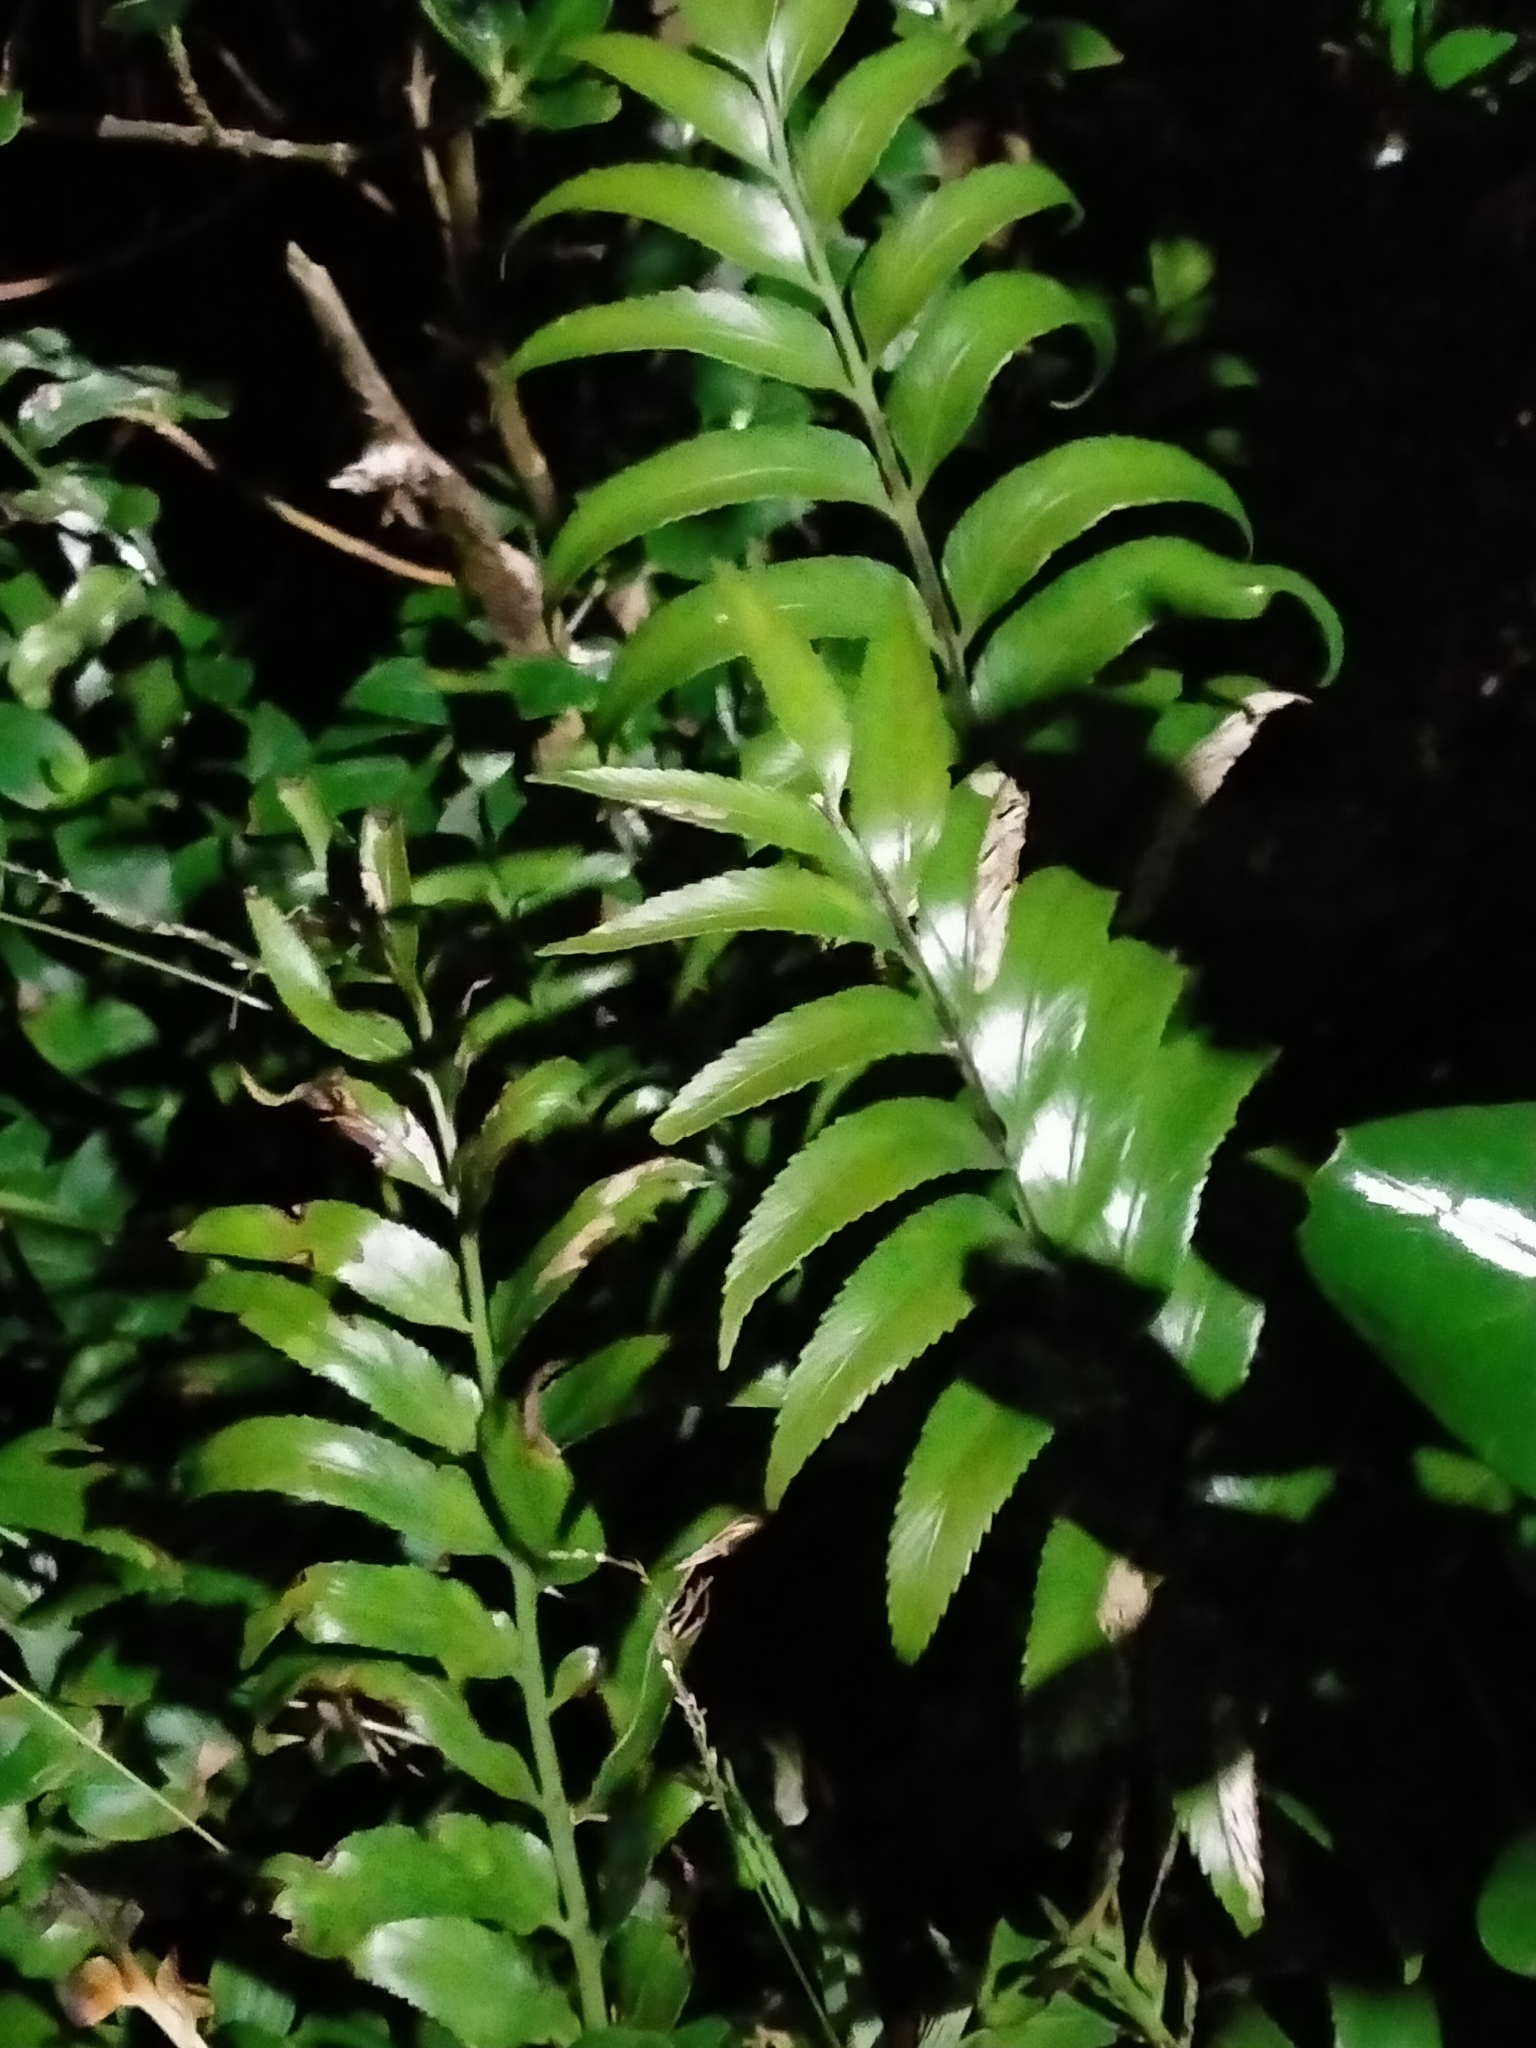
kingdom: Plantae
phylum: Tracheophyta
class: Polypodiopsida
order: Polypodiales
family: Aspleniaceae
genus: Asplenium
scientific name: Asplenium oblongifolium
